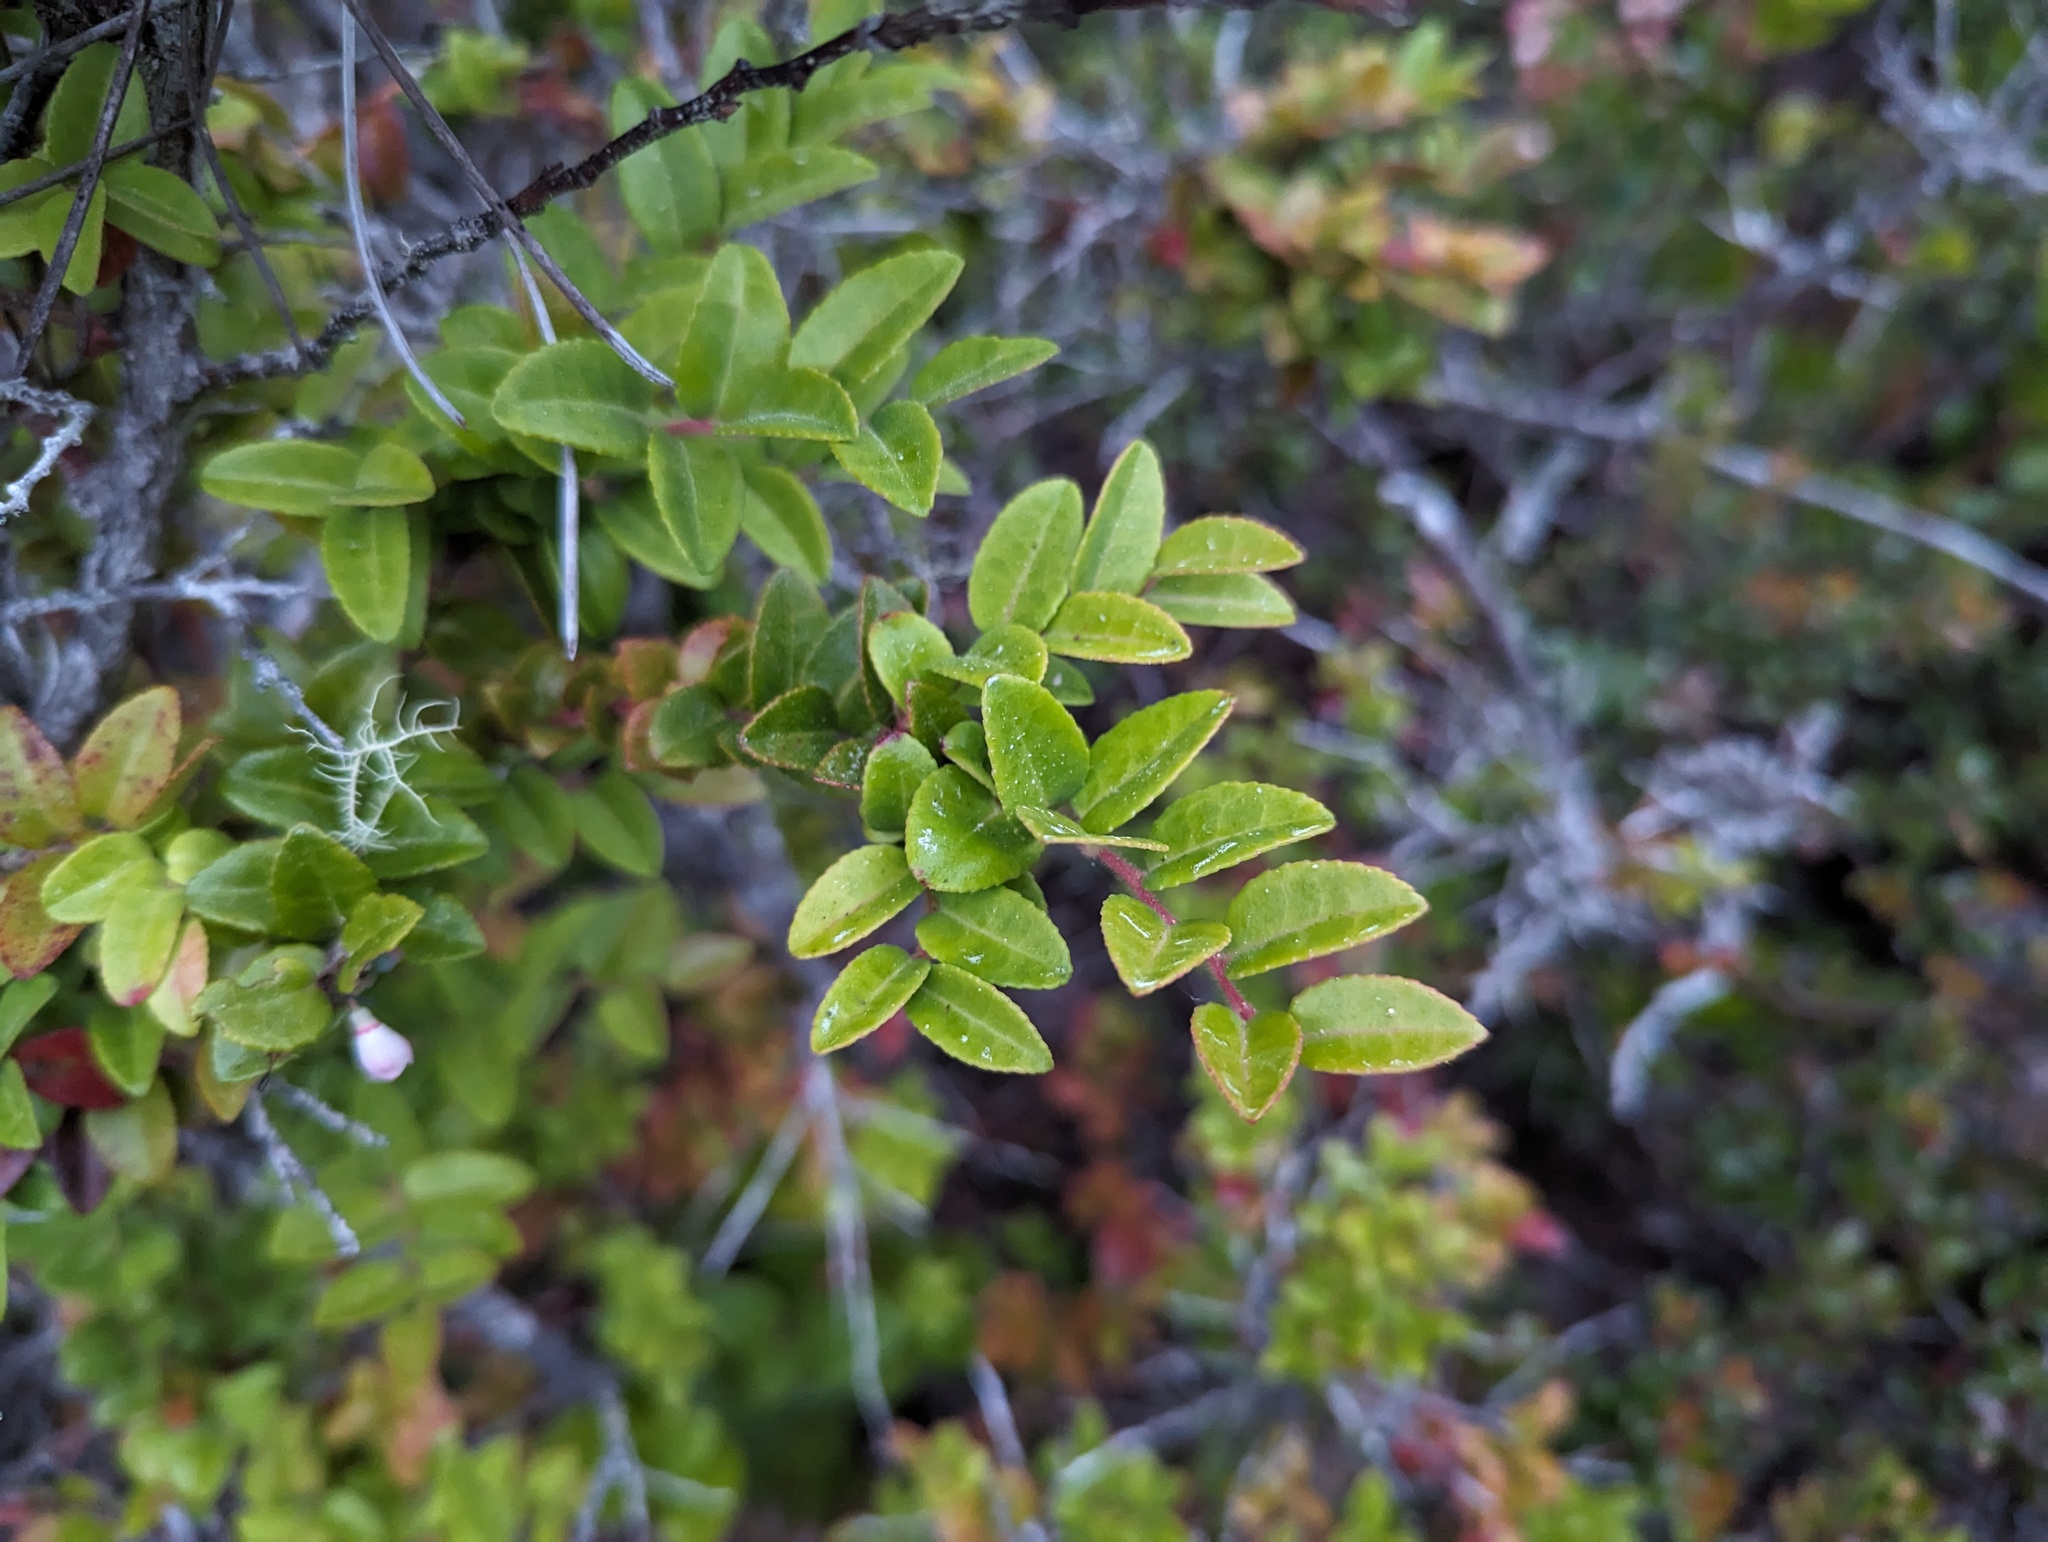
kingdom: Plantae
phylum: Tracheophyta
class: Magnoliopsida
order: Ericales
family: Ericaceae
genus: Vaccinium
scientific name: Vaccinium ovatum
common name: California-huckleberry
